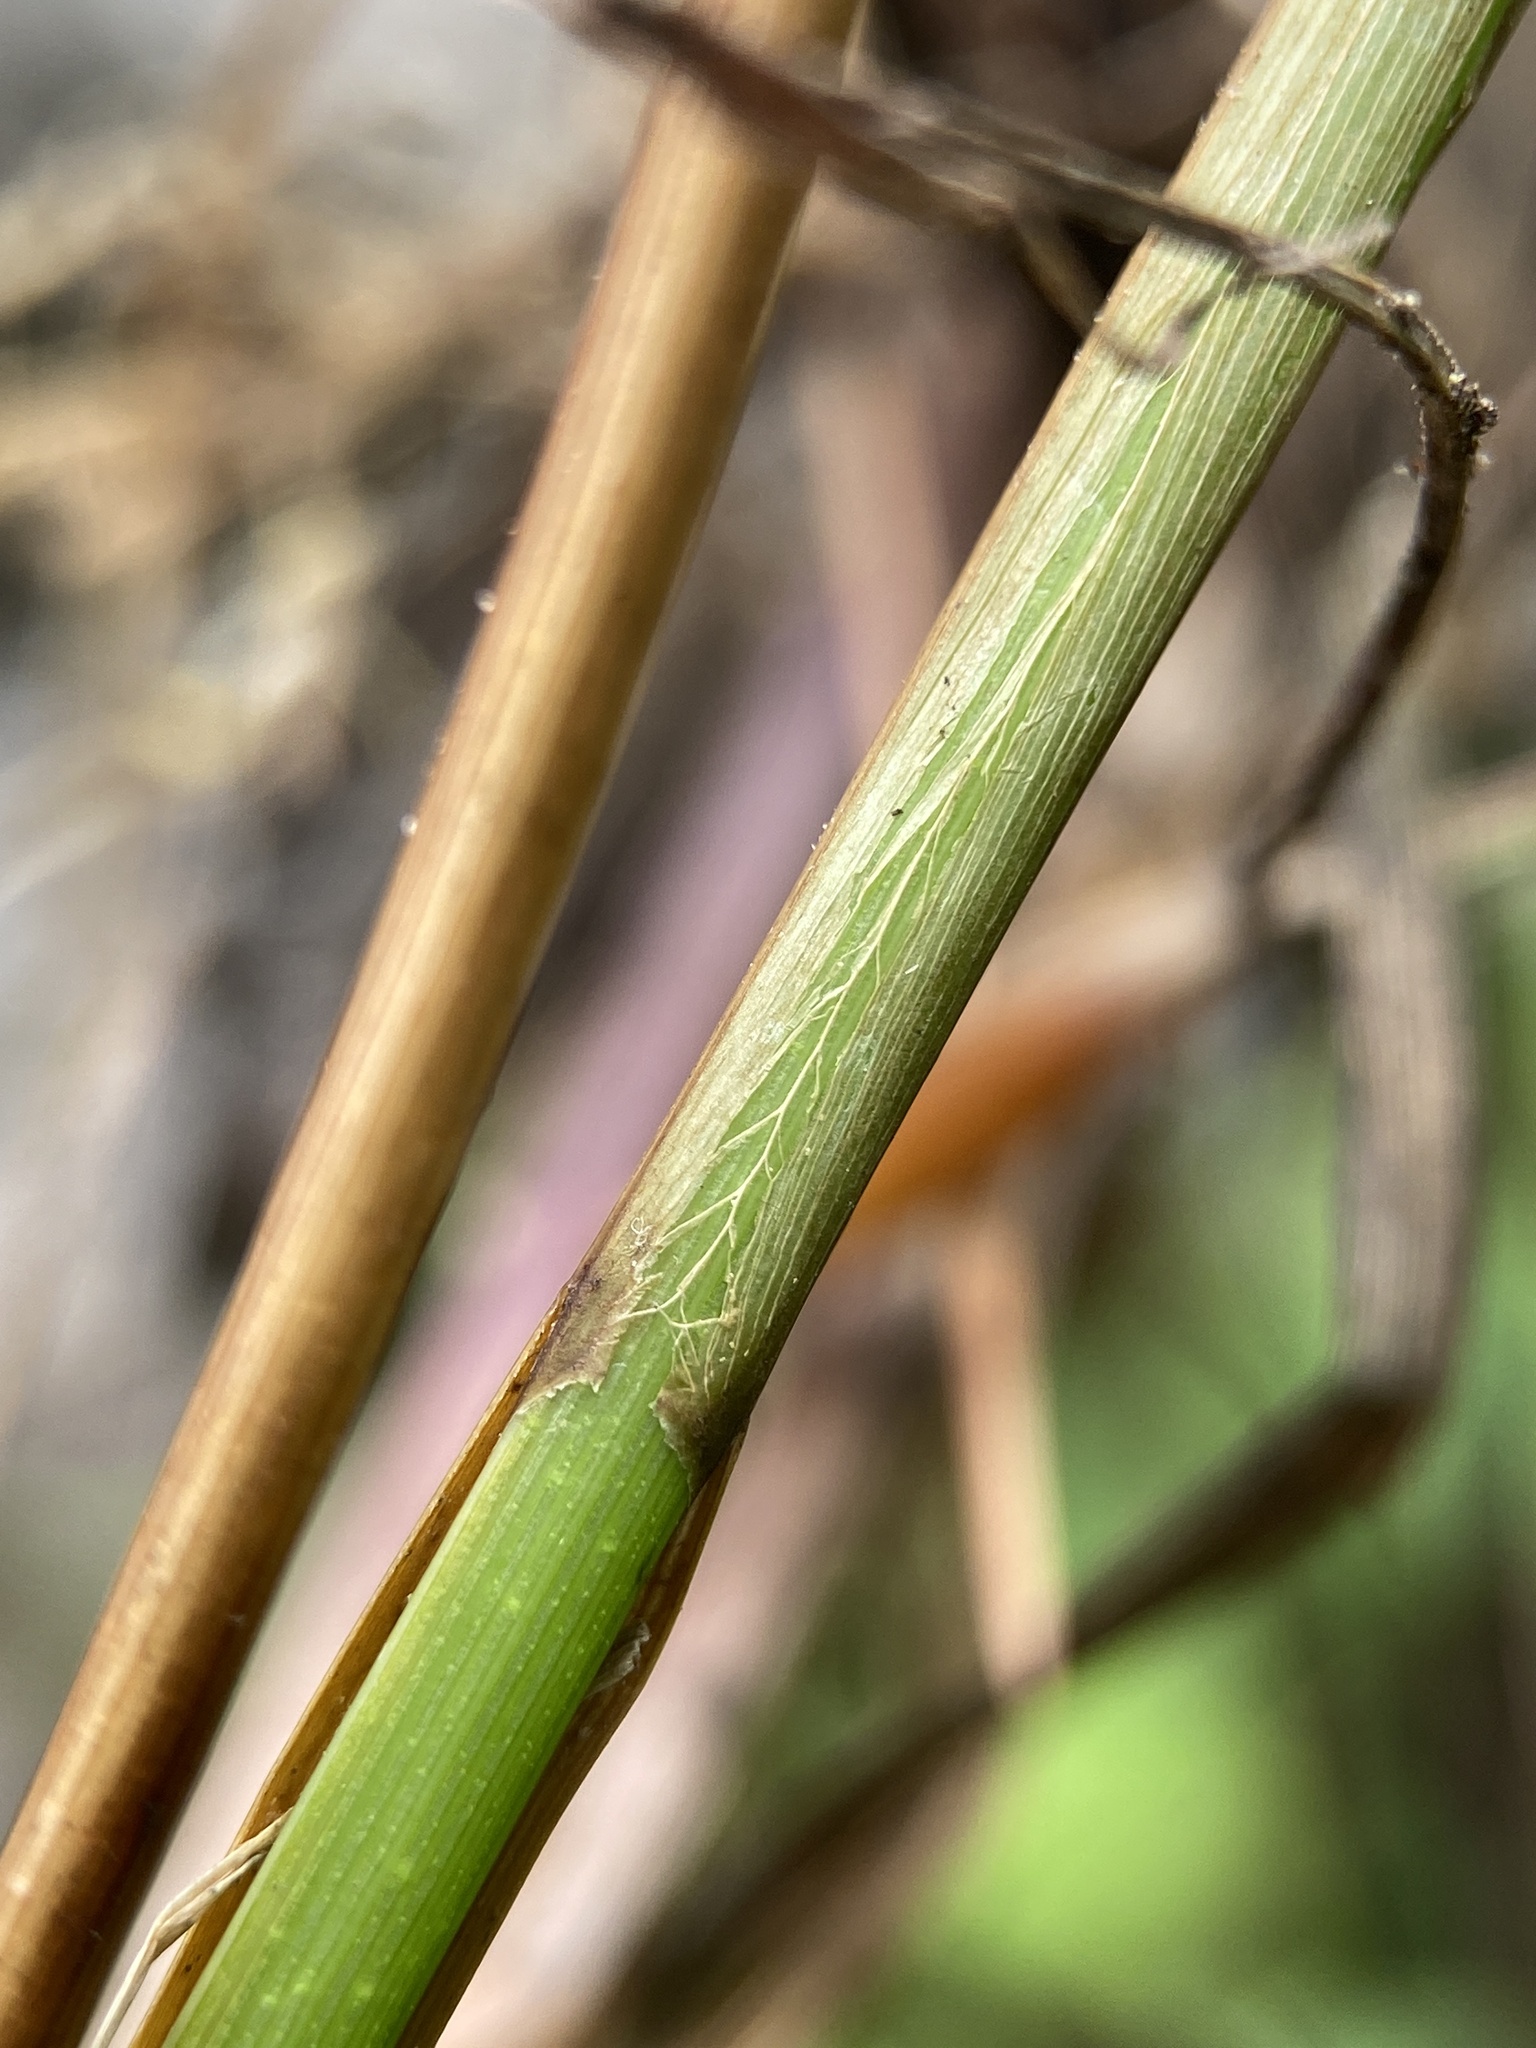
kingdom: Plantae
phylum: Tracheophyta
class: Liliopsida
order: Poales
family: Cyperaceae
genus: Carex
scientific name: Carex vesicaria
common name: Bladder-sedge
